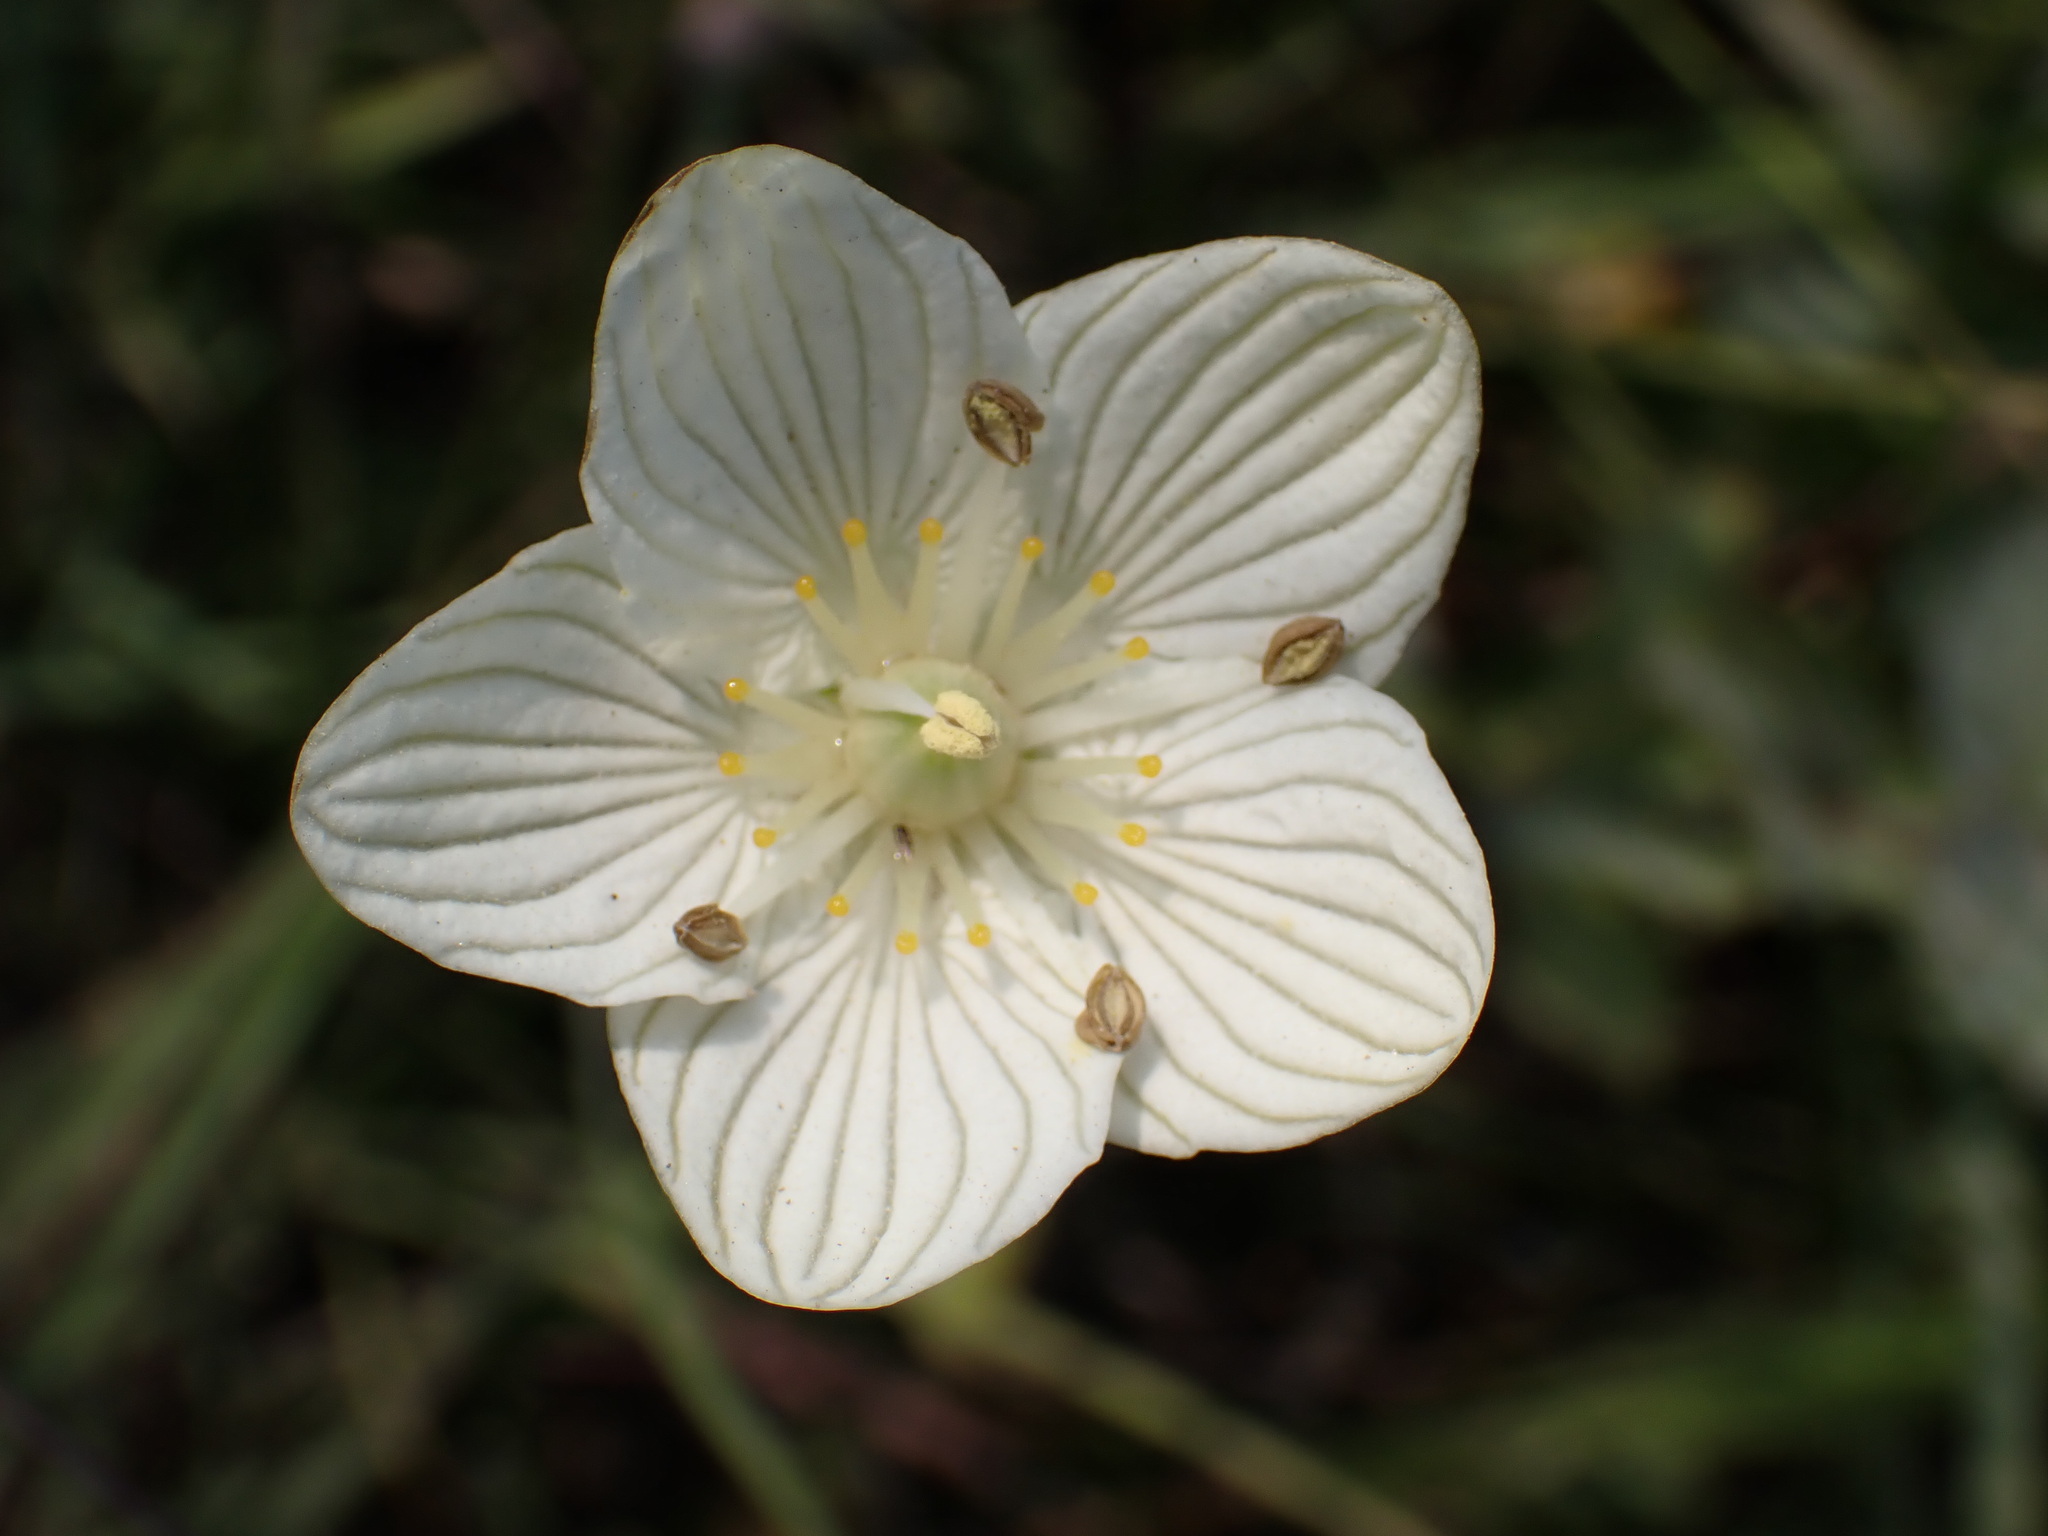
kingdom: Plantae
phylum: Tracheophyta
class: Magnoliopsida
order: Celastrales
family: Parnassiaceae
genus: Parnassia
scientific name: Parnassia glauca
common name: American grass-of-parnassus
